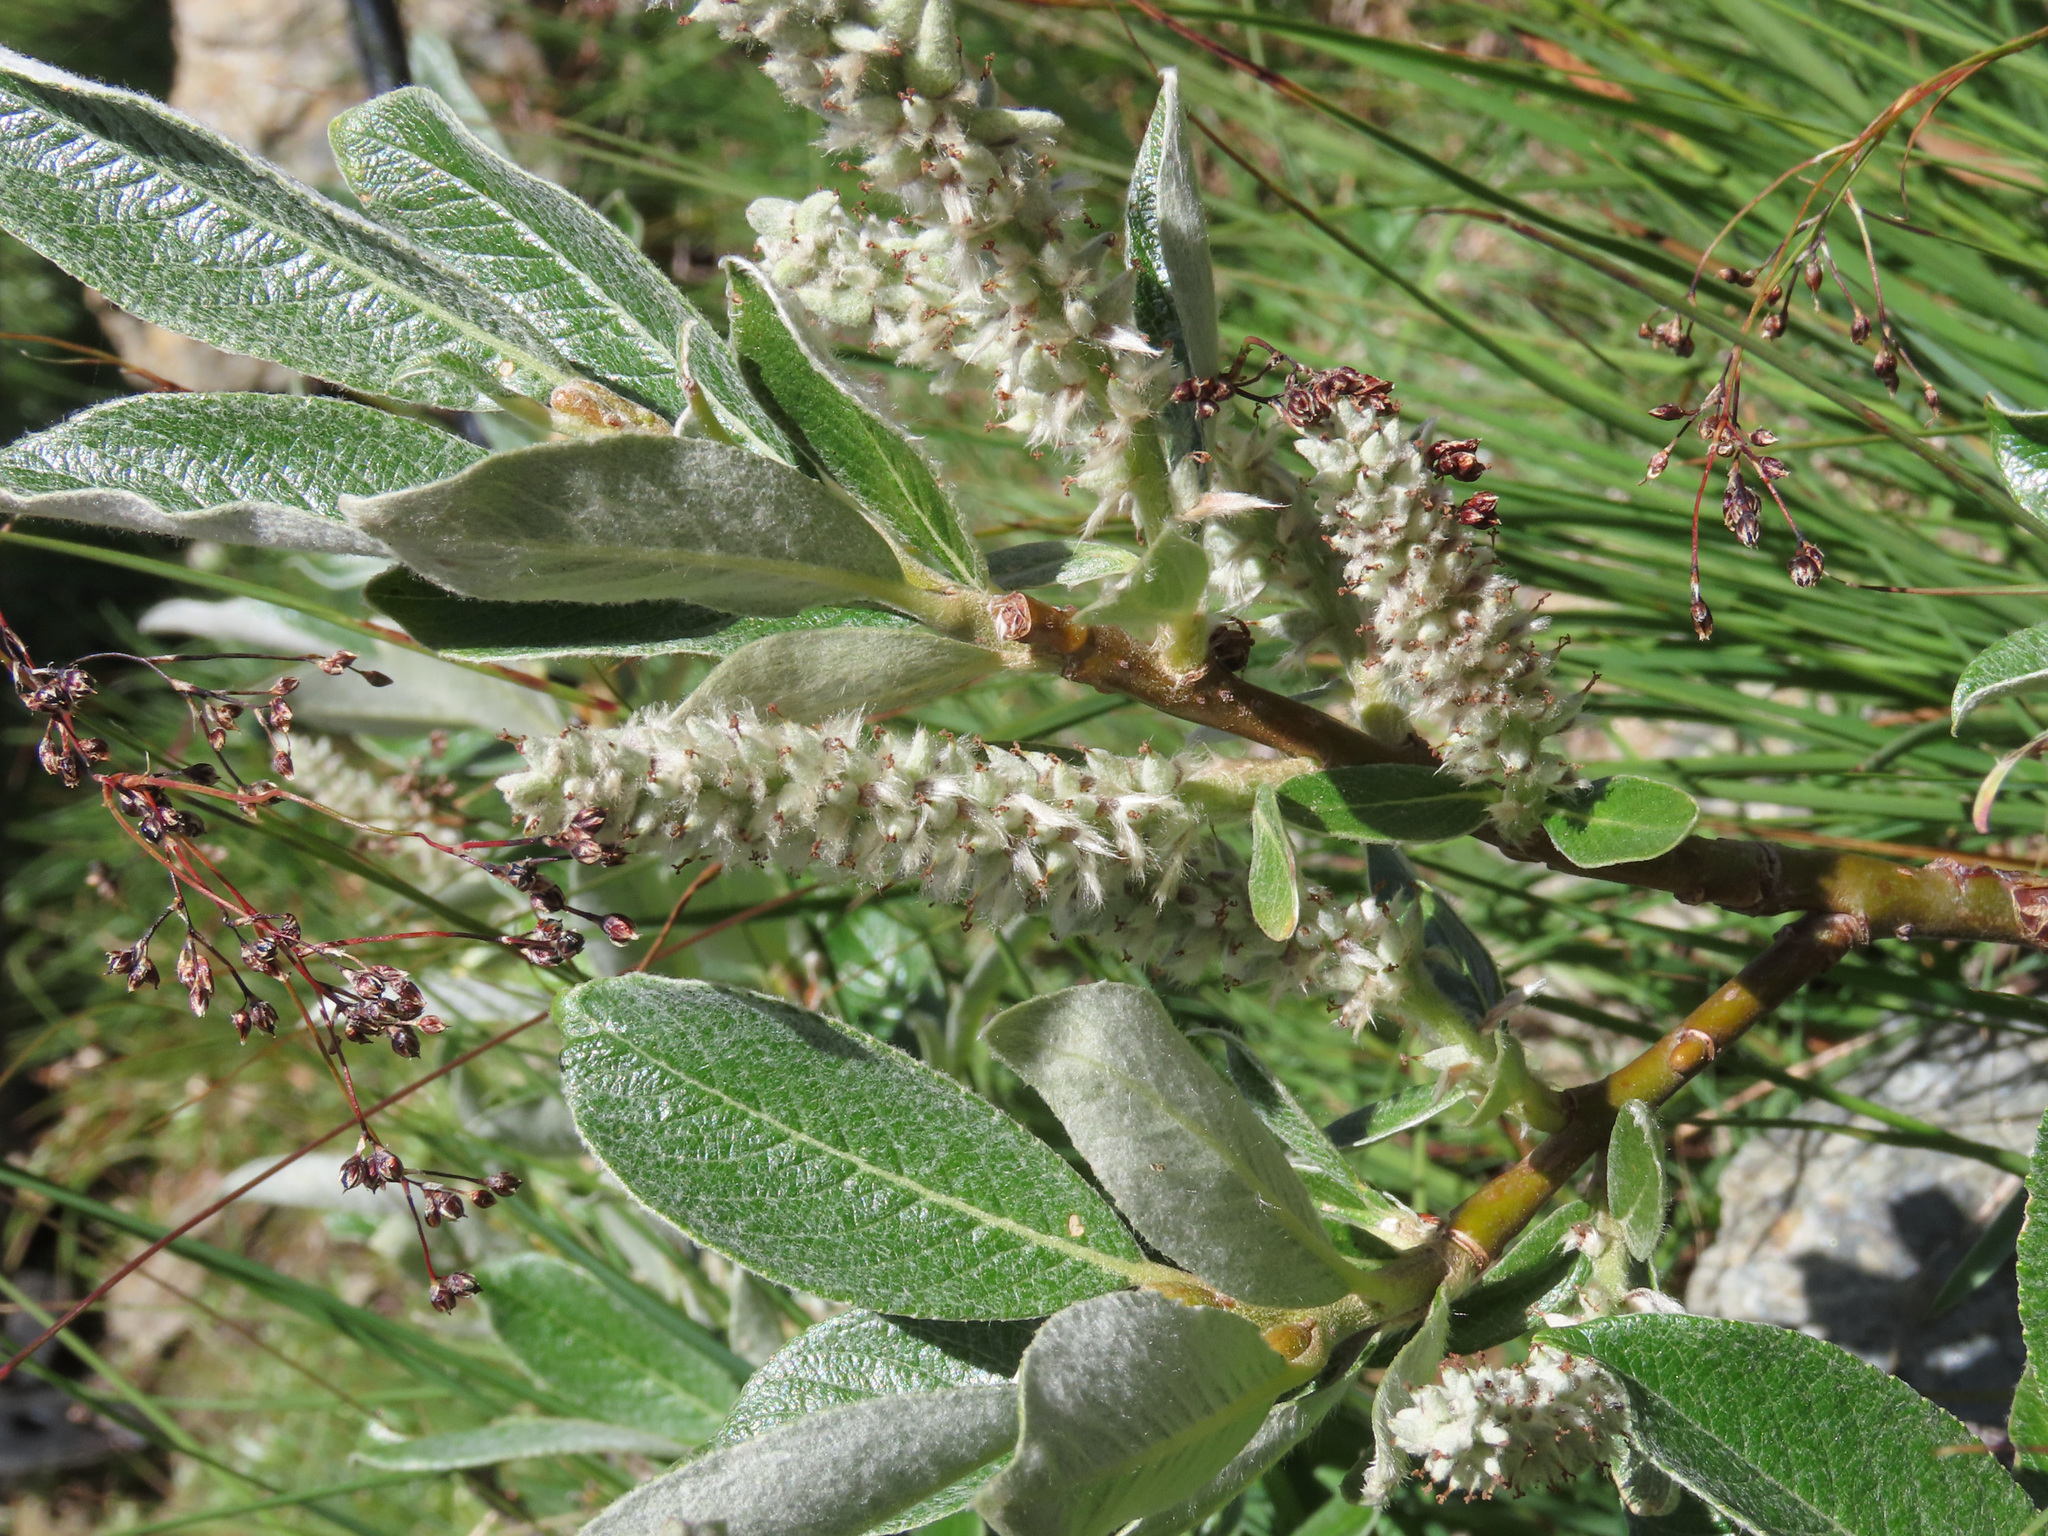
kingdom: Plantae
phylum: Tracheophyta
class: Magnoliopsida
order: Malpighiales
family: Salicaceae
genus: Salix
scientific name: Salix helvetica
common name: Swiss willow
